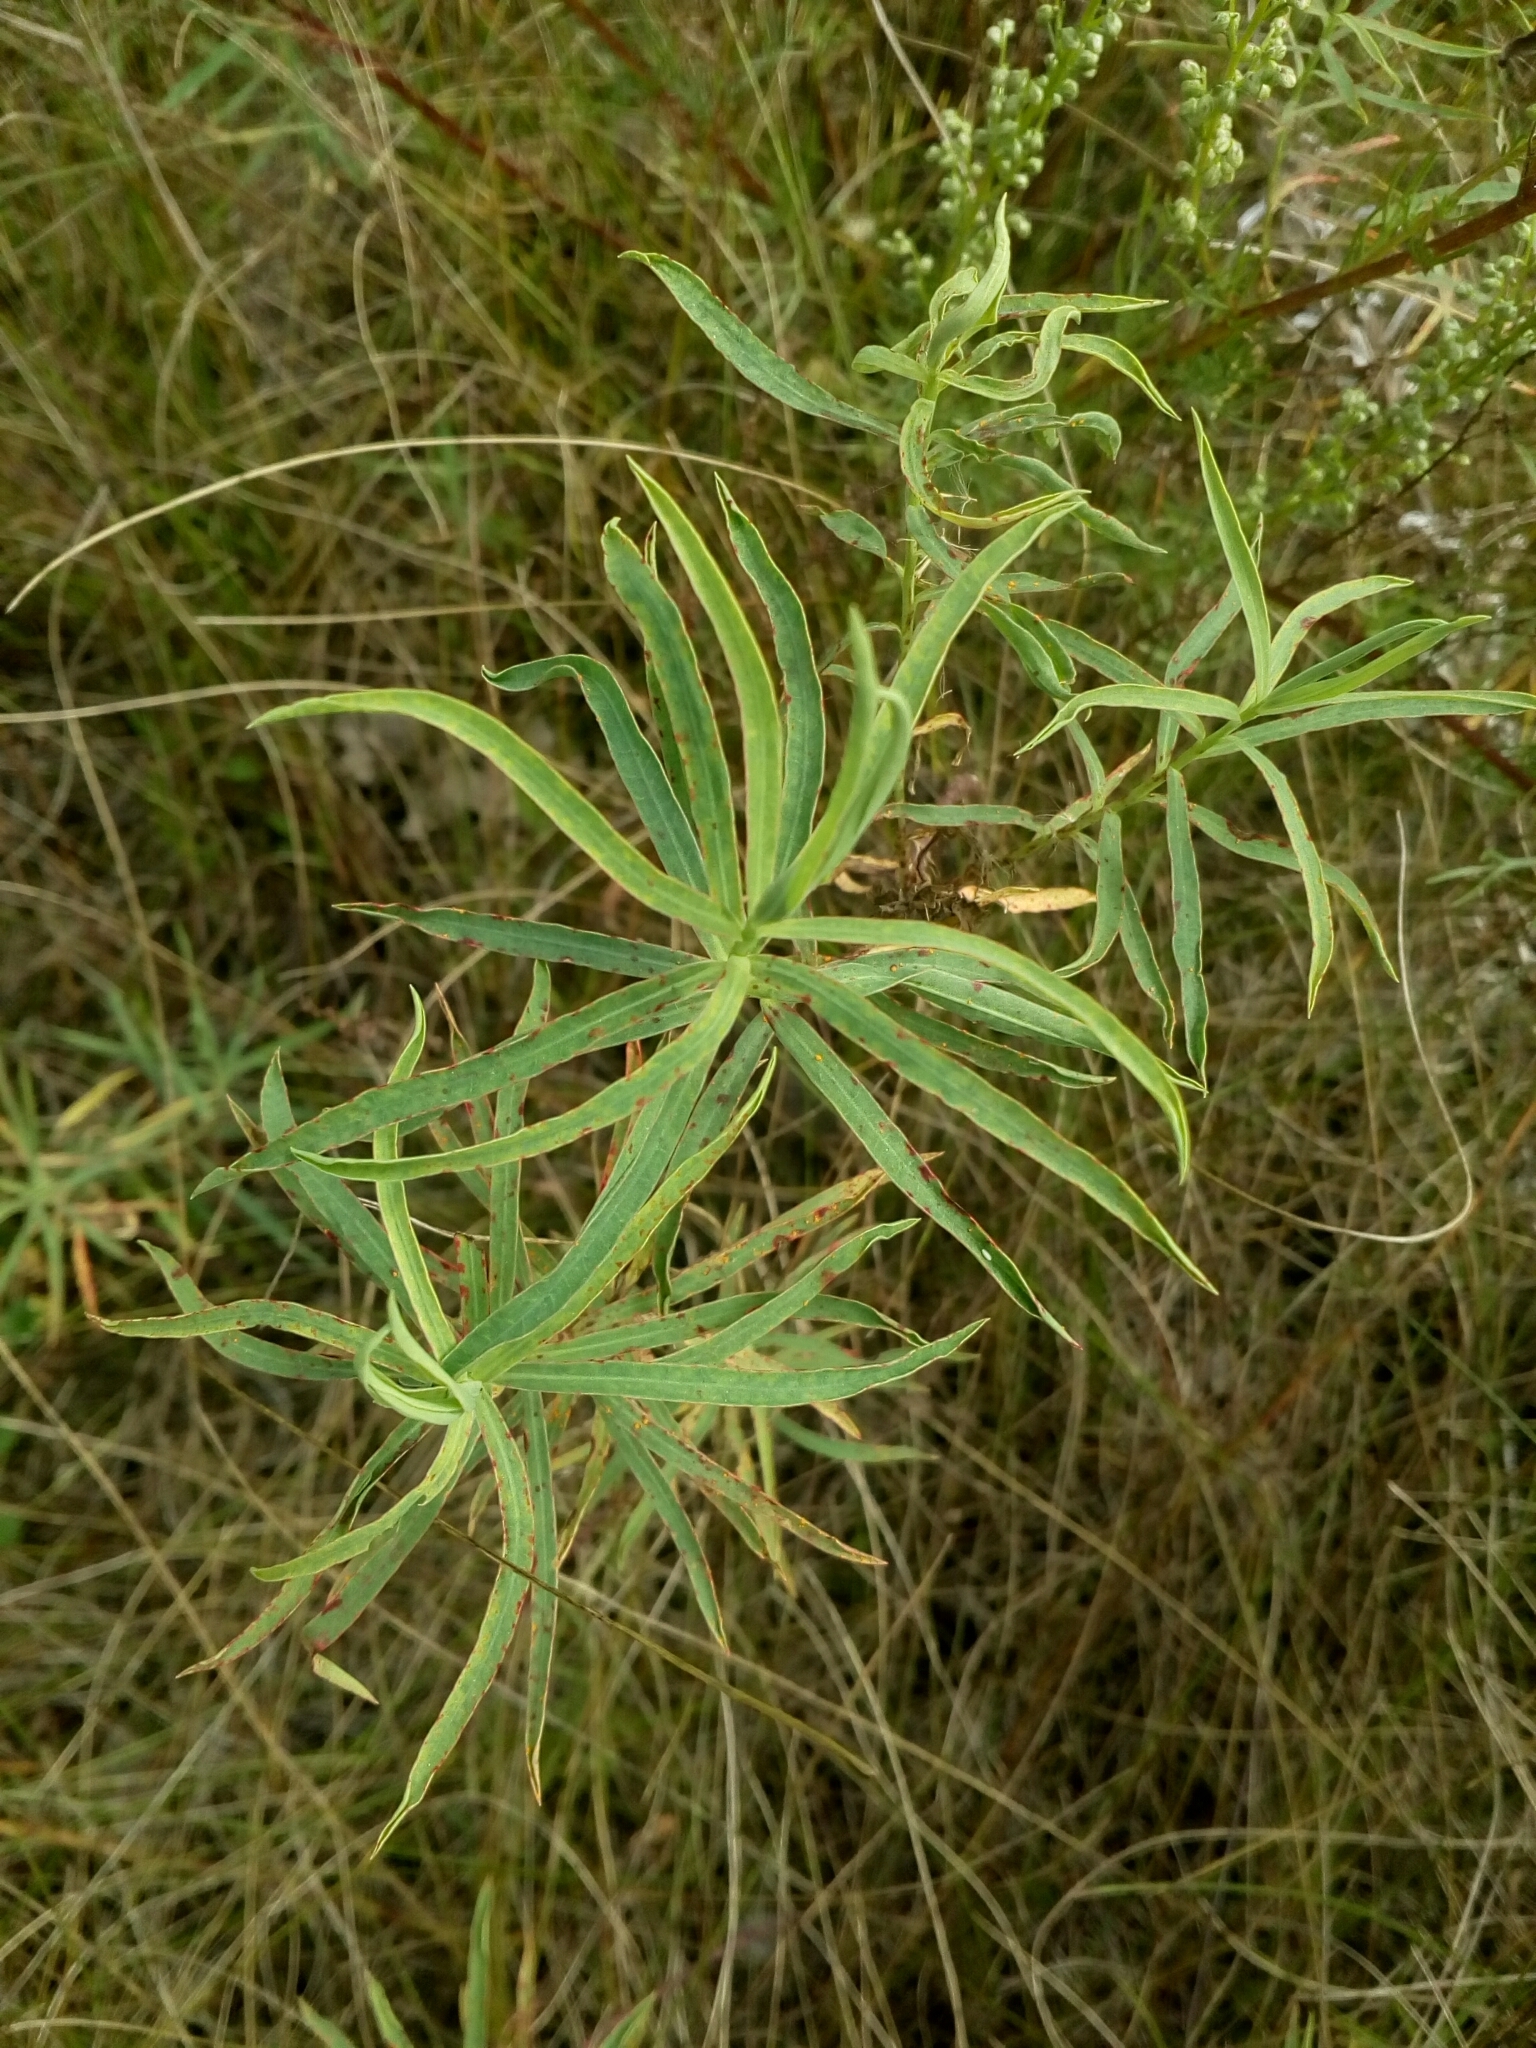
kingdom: Plantae
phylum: Tracheophyta
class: Magnoliopsida
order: Malpighiales
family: Euphorbiaceae
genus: Euphorbia
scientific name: Euphorbia virgata
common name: Leafy spurge
